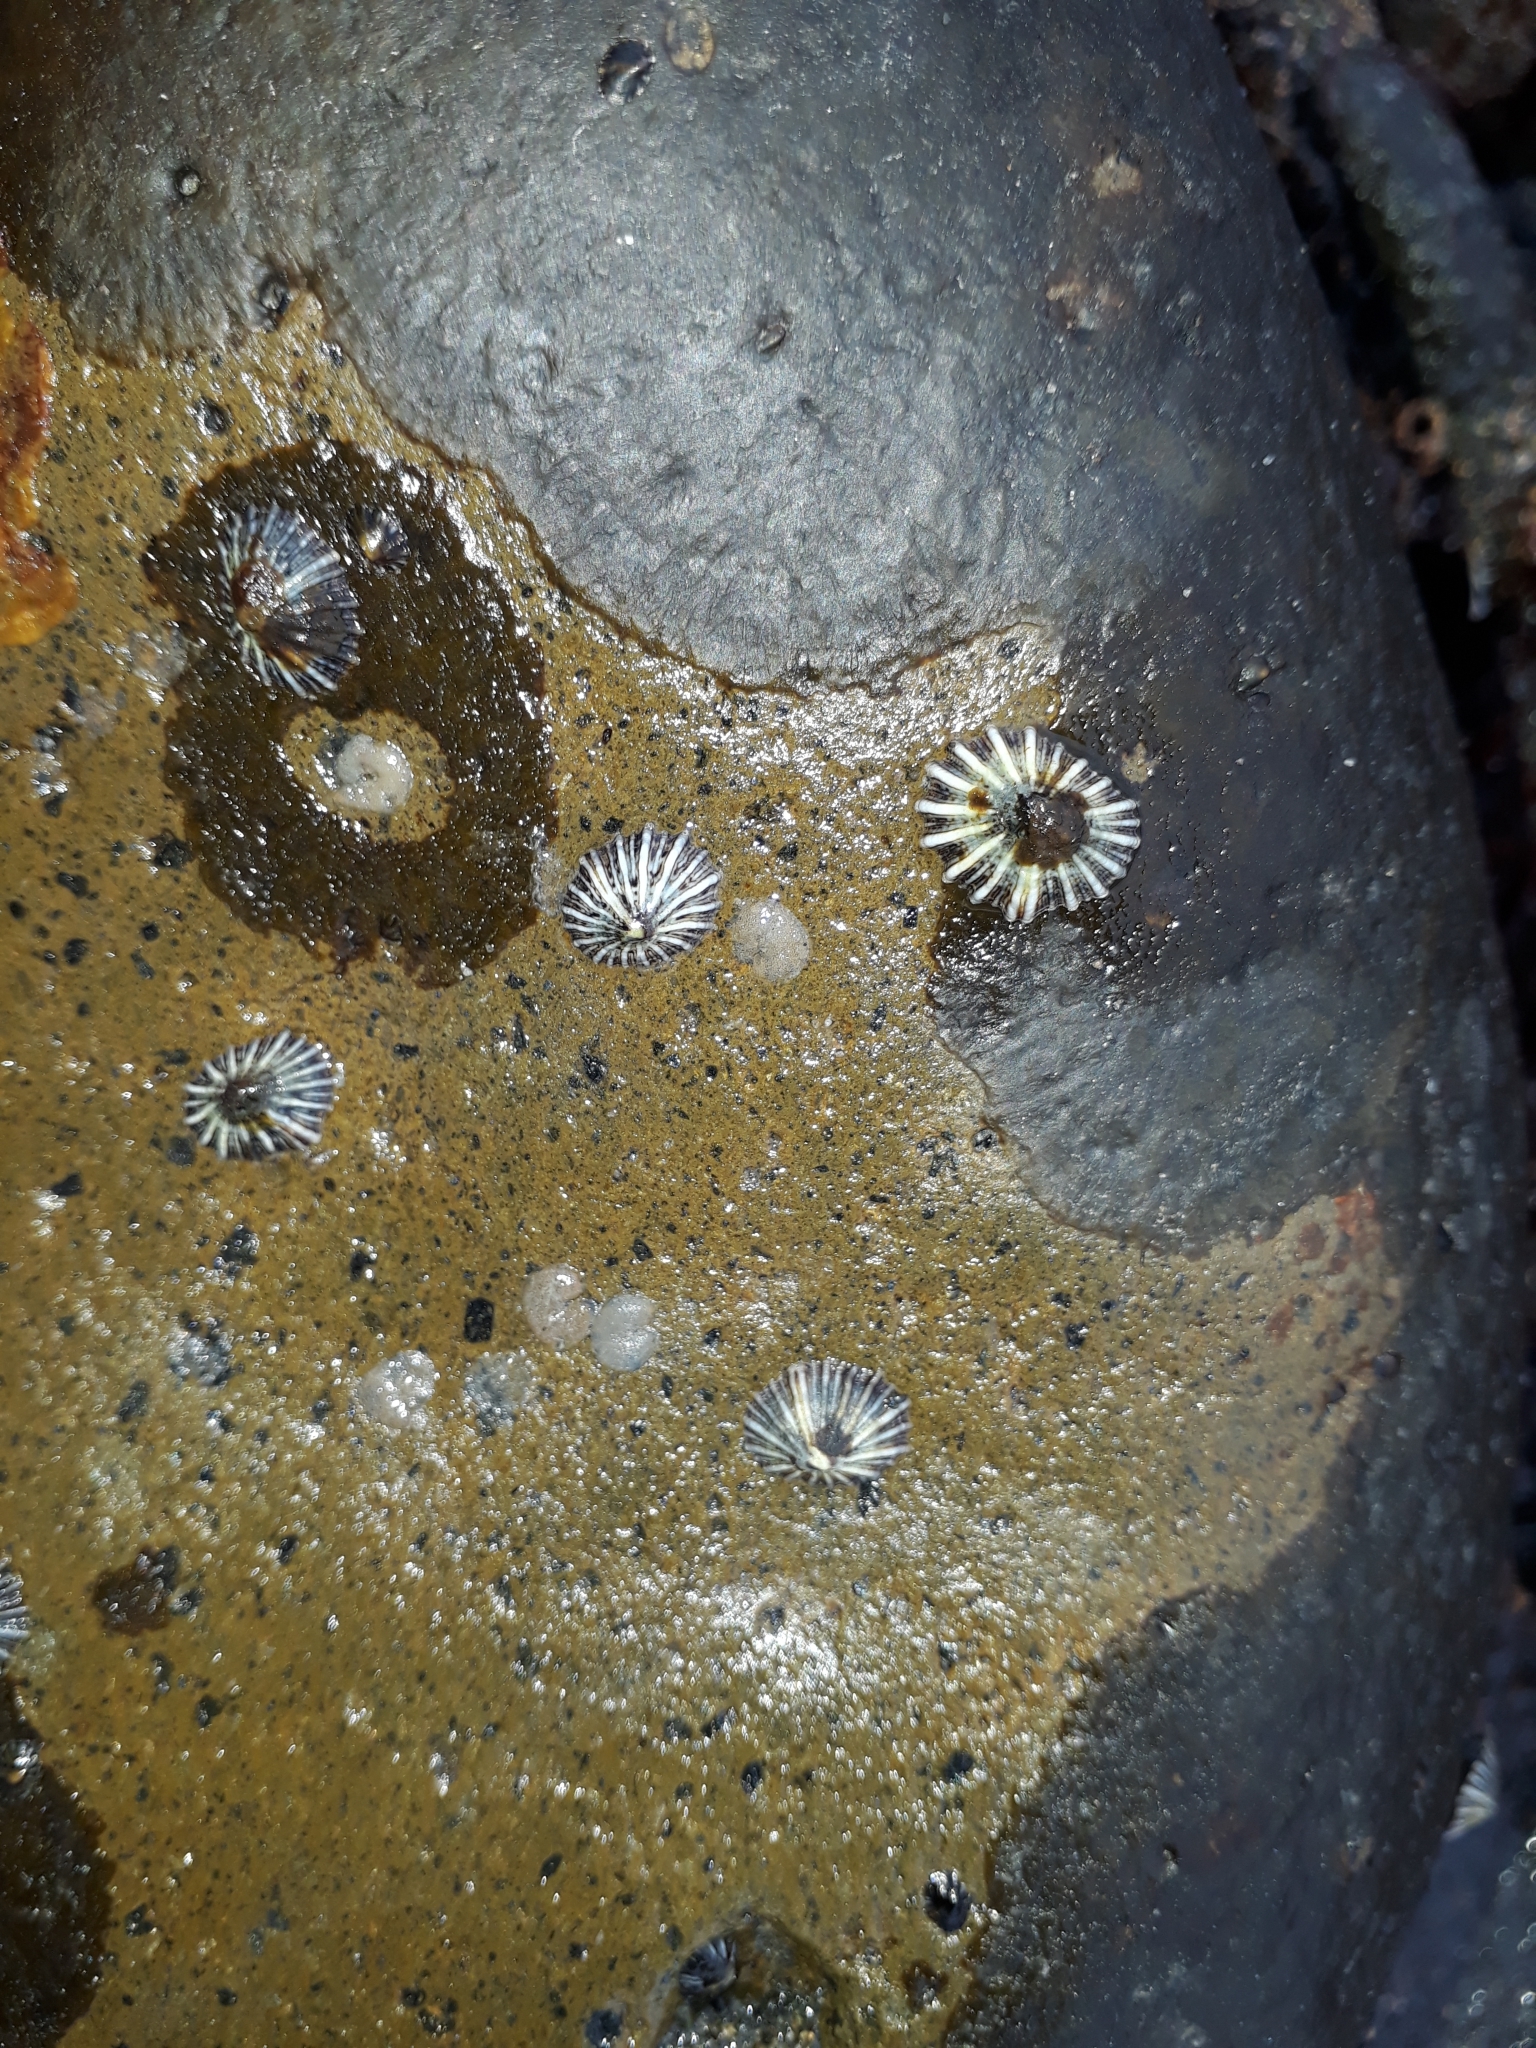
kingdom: Animalia
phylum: Mollusca
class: Gastropoda
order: Siphonariida
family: Siphonariidae
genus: Siphonaria
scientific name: Siphonaria australis
